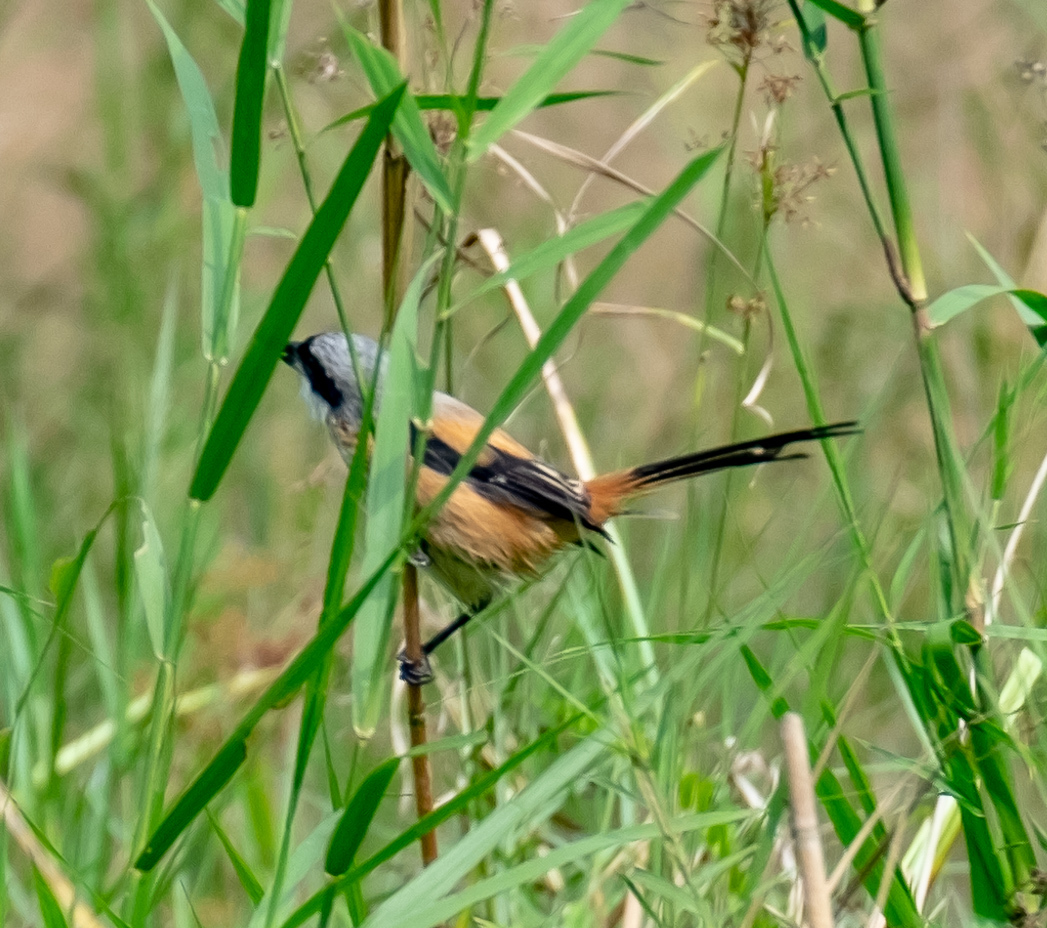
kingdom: Animalia
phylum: Chordata
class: Aves
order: Passeriformes
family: Laniidae
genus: Lanius
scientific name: Lanius schach
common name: Long-tailed shrike
